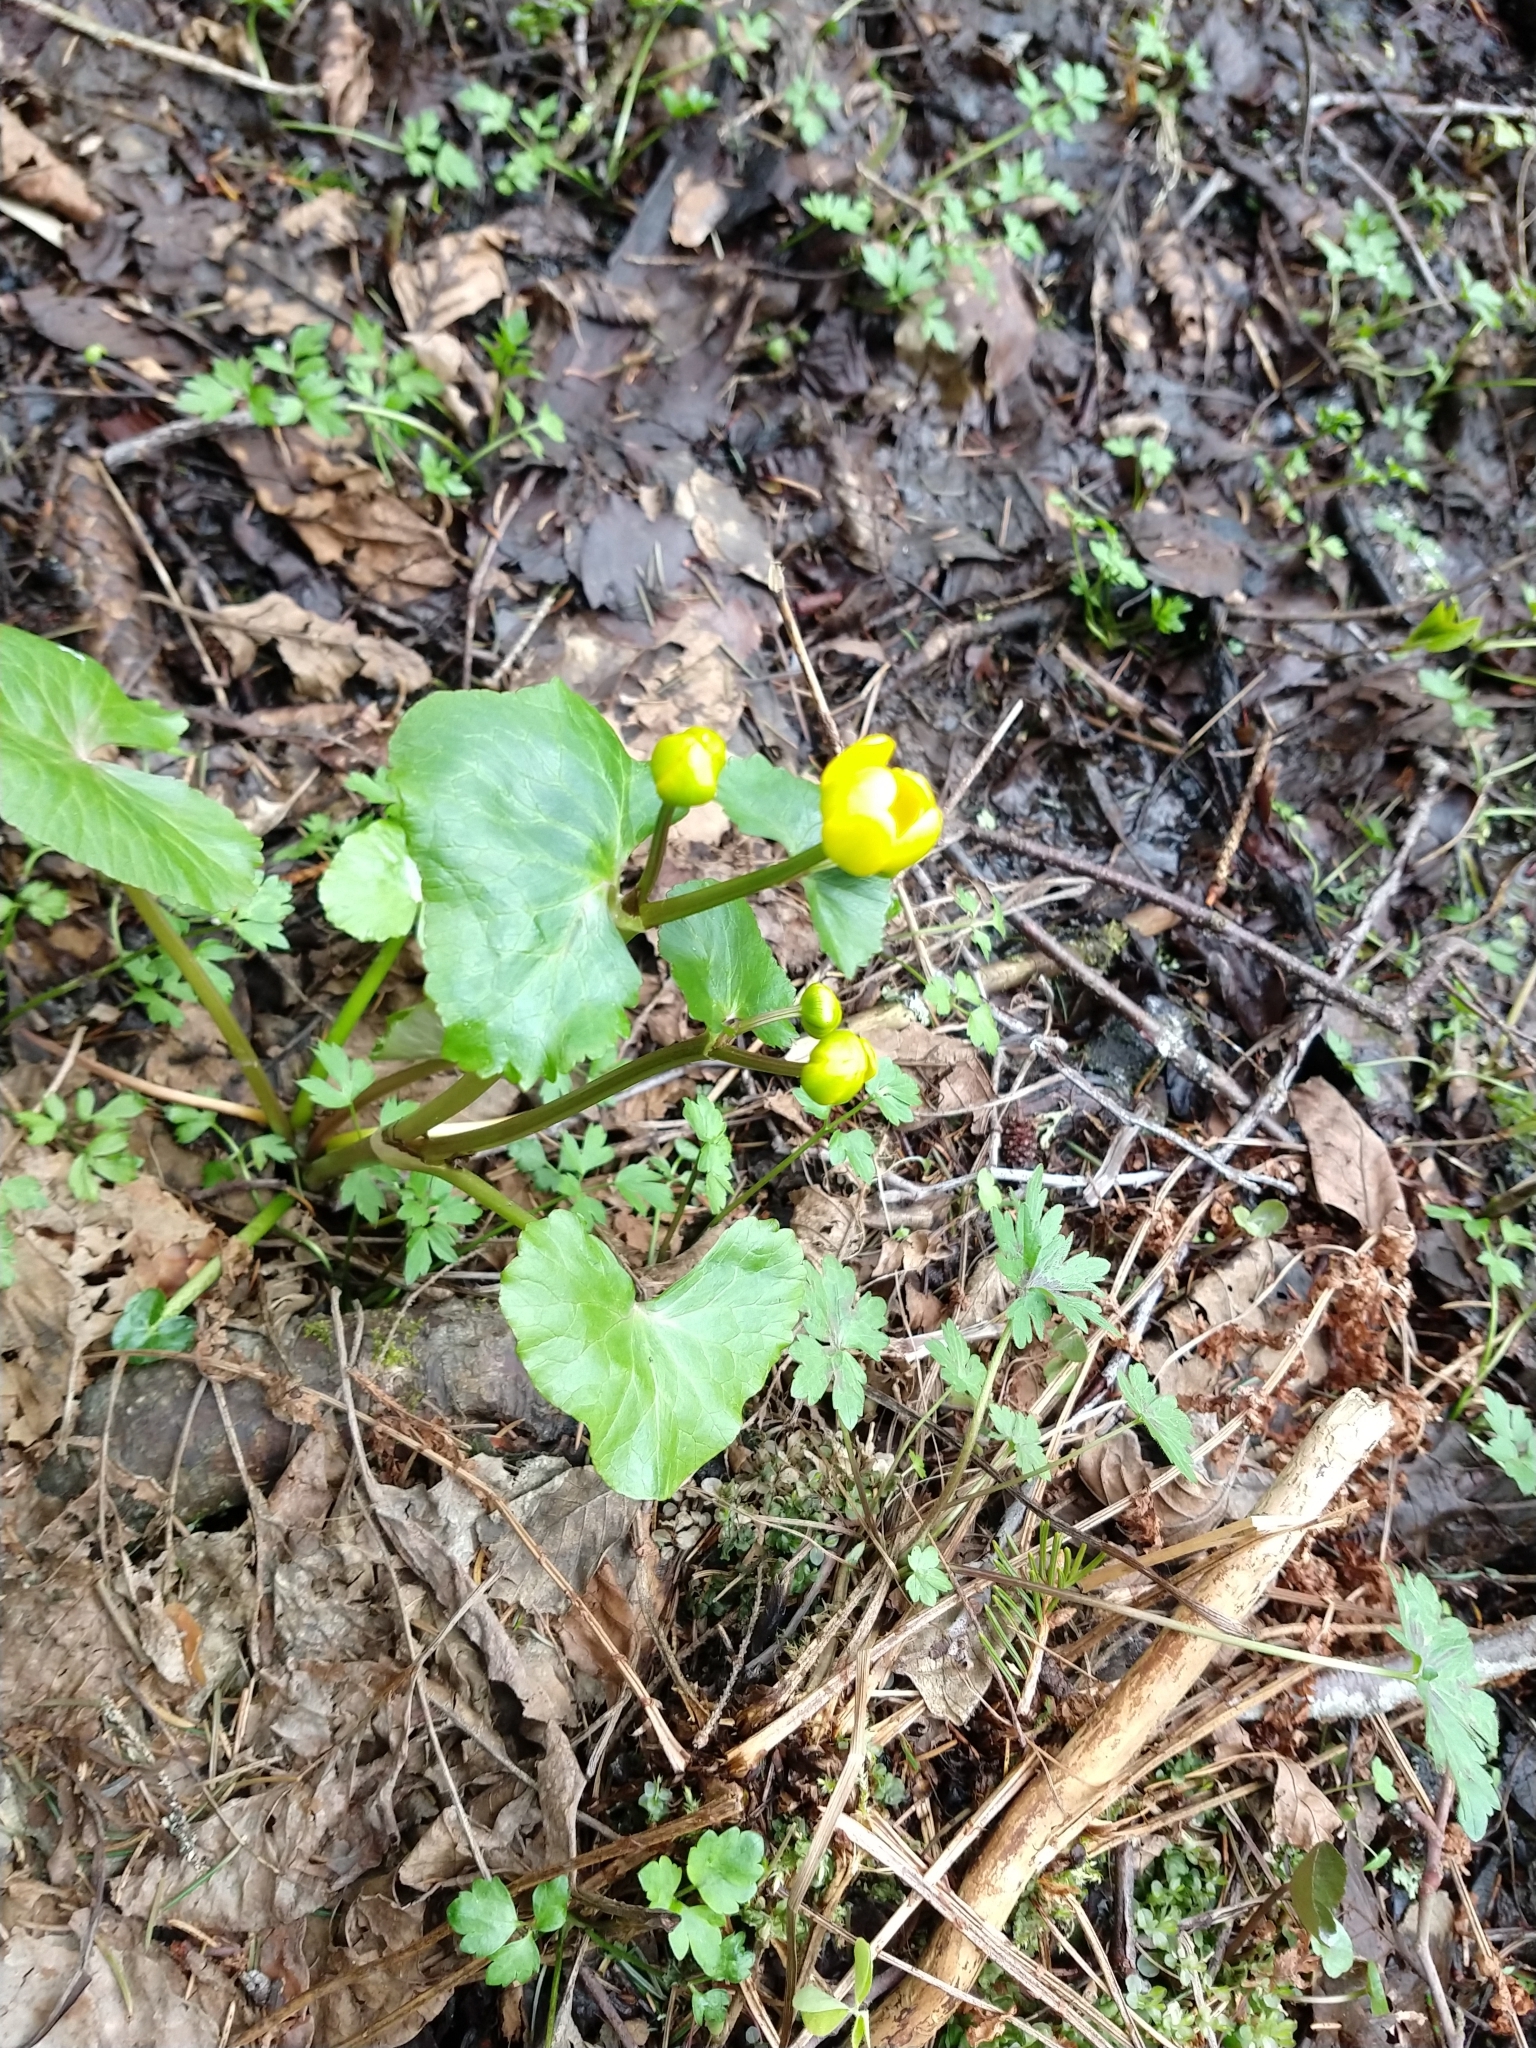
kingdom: Plantae
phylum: Tracheophyta
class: Magnoliopsida
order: Ranunculales
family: Ranunculaceae
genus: Caltha
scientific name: Caltha palustris
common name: Marsh marigold
